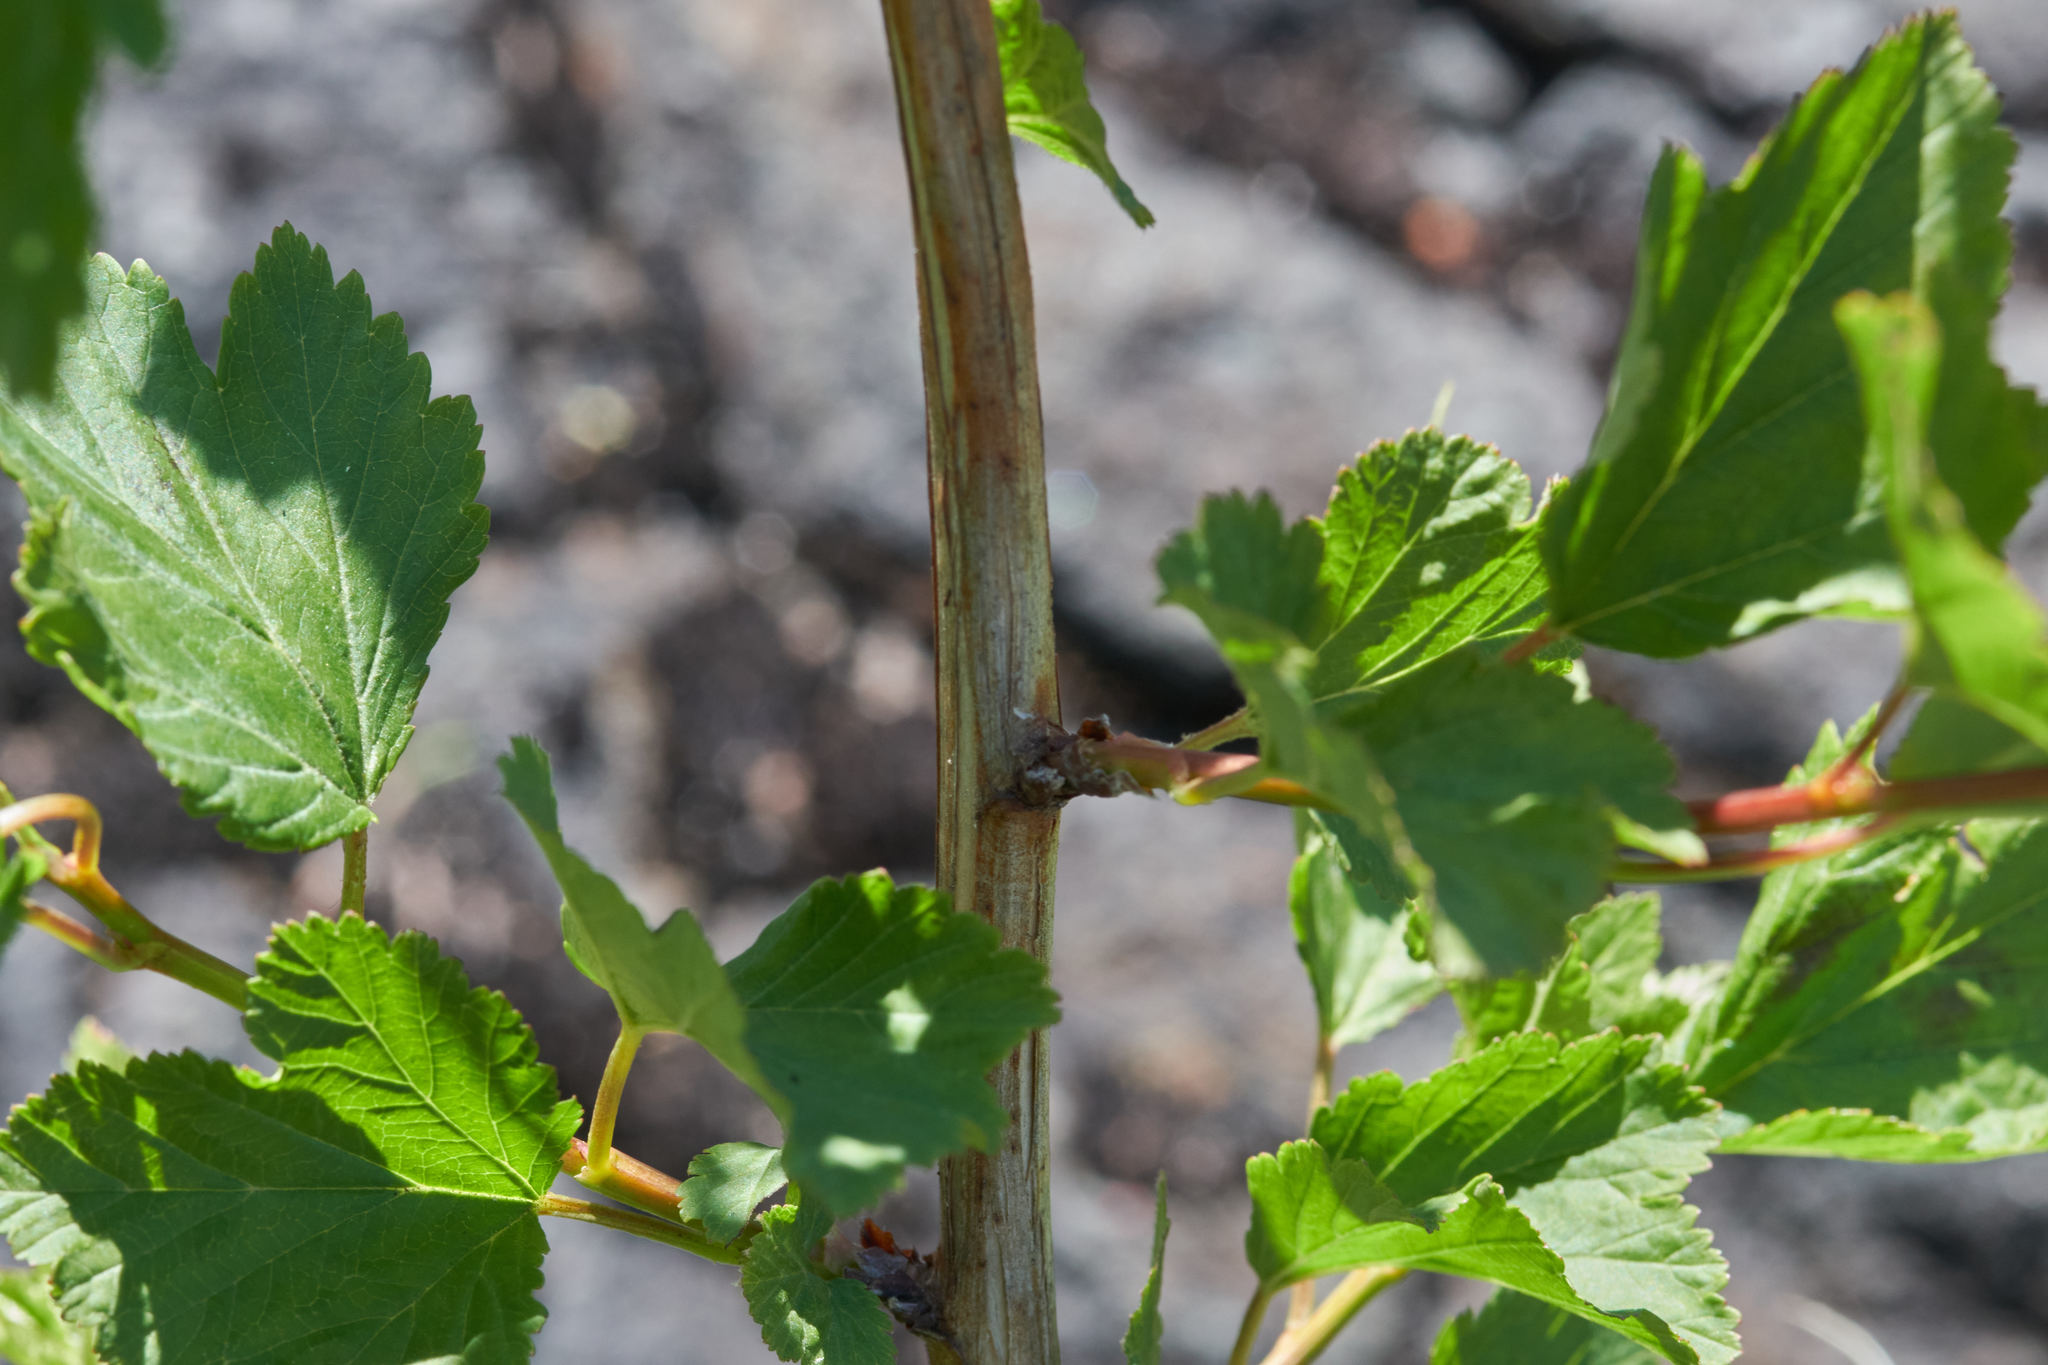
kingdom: Plantae
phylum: Tracheophyta
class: Magnoliopsida
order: Rosales
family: Rosaceae
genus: Physocarpus
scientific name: Physocarpus opulifolius
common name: Ninebark
